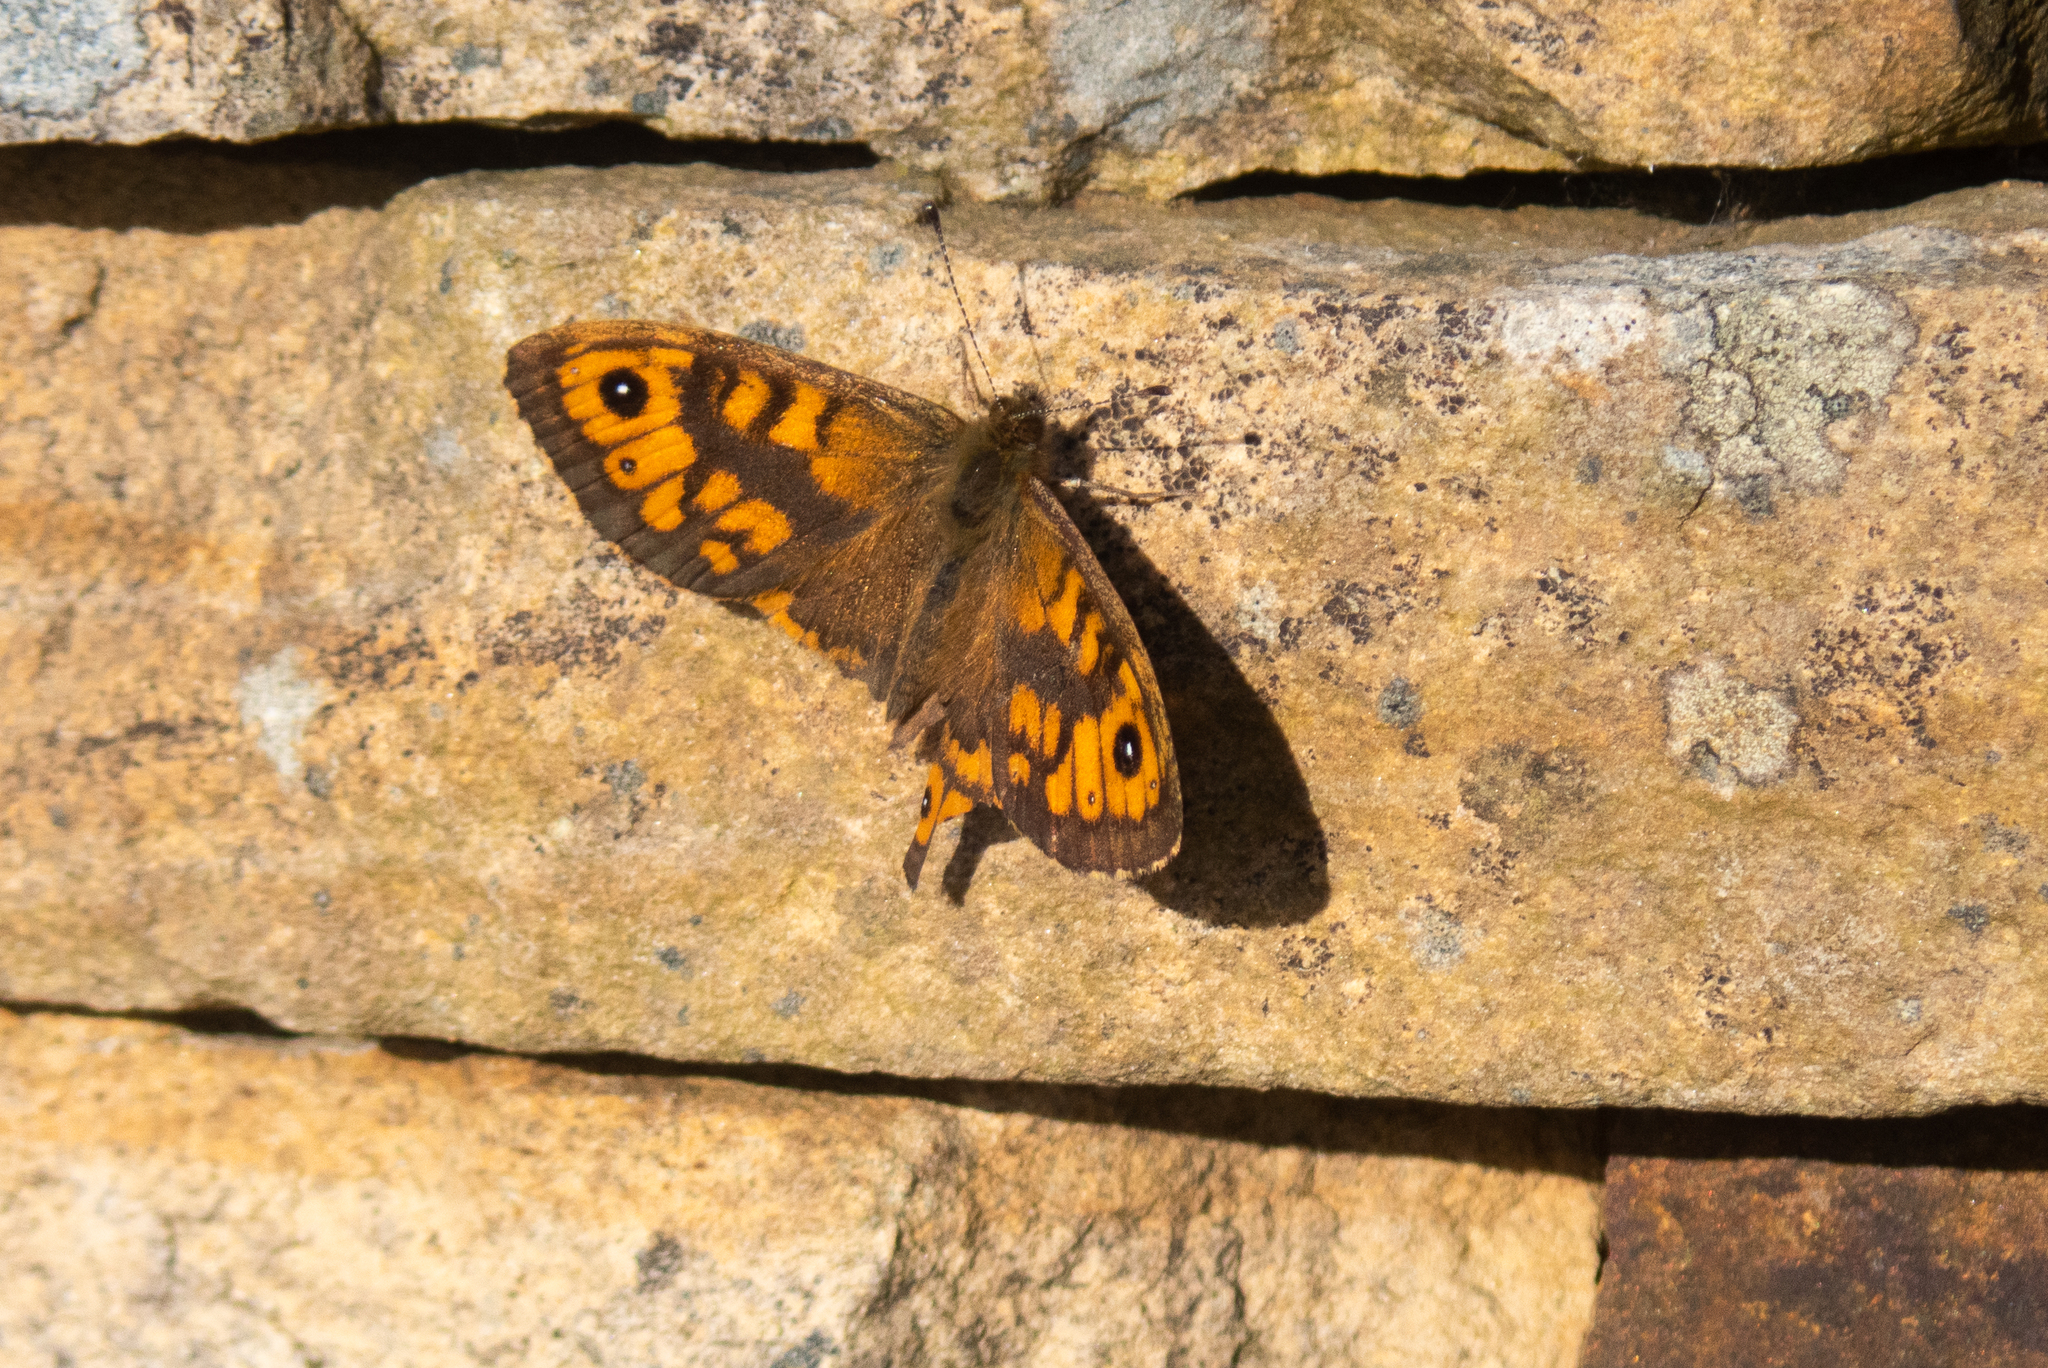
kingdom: Animalia
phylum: Arthropoda
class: Insecta
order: Lepidoptera
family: Nymphalidae
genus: Pararge
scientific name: Pararge Lasiommata megera
